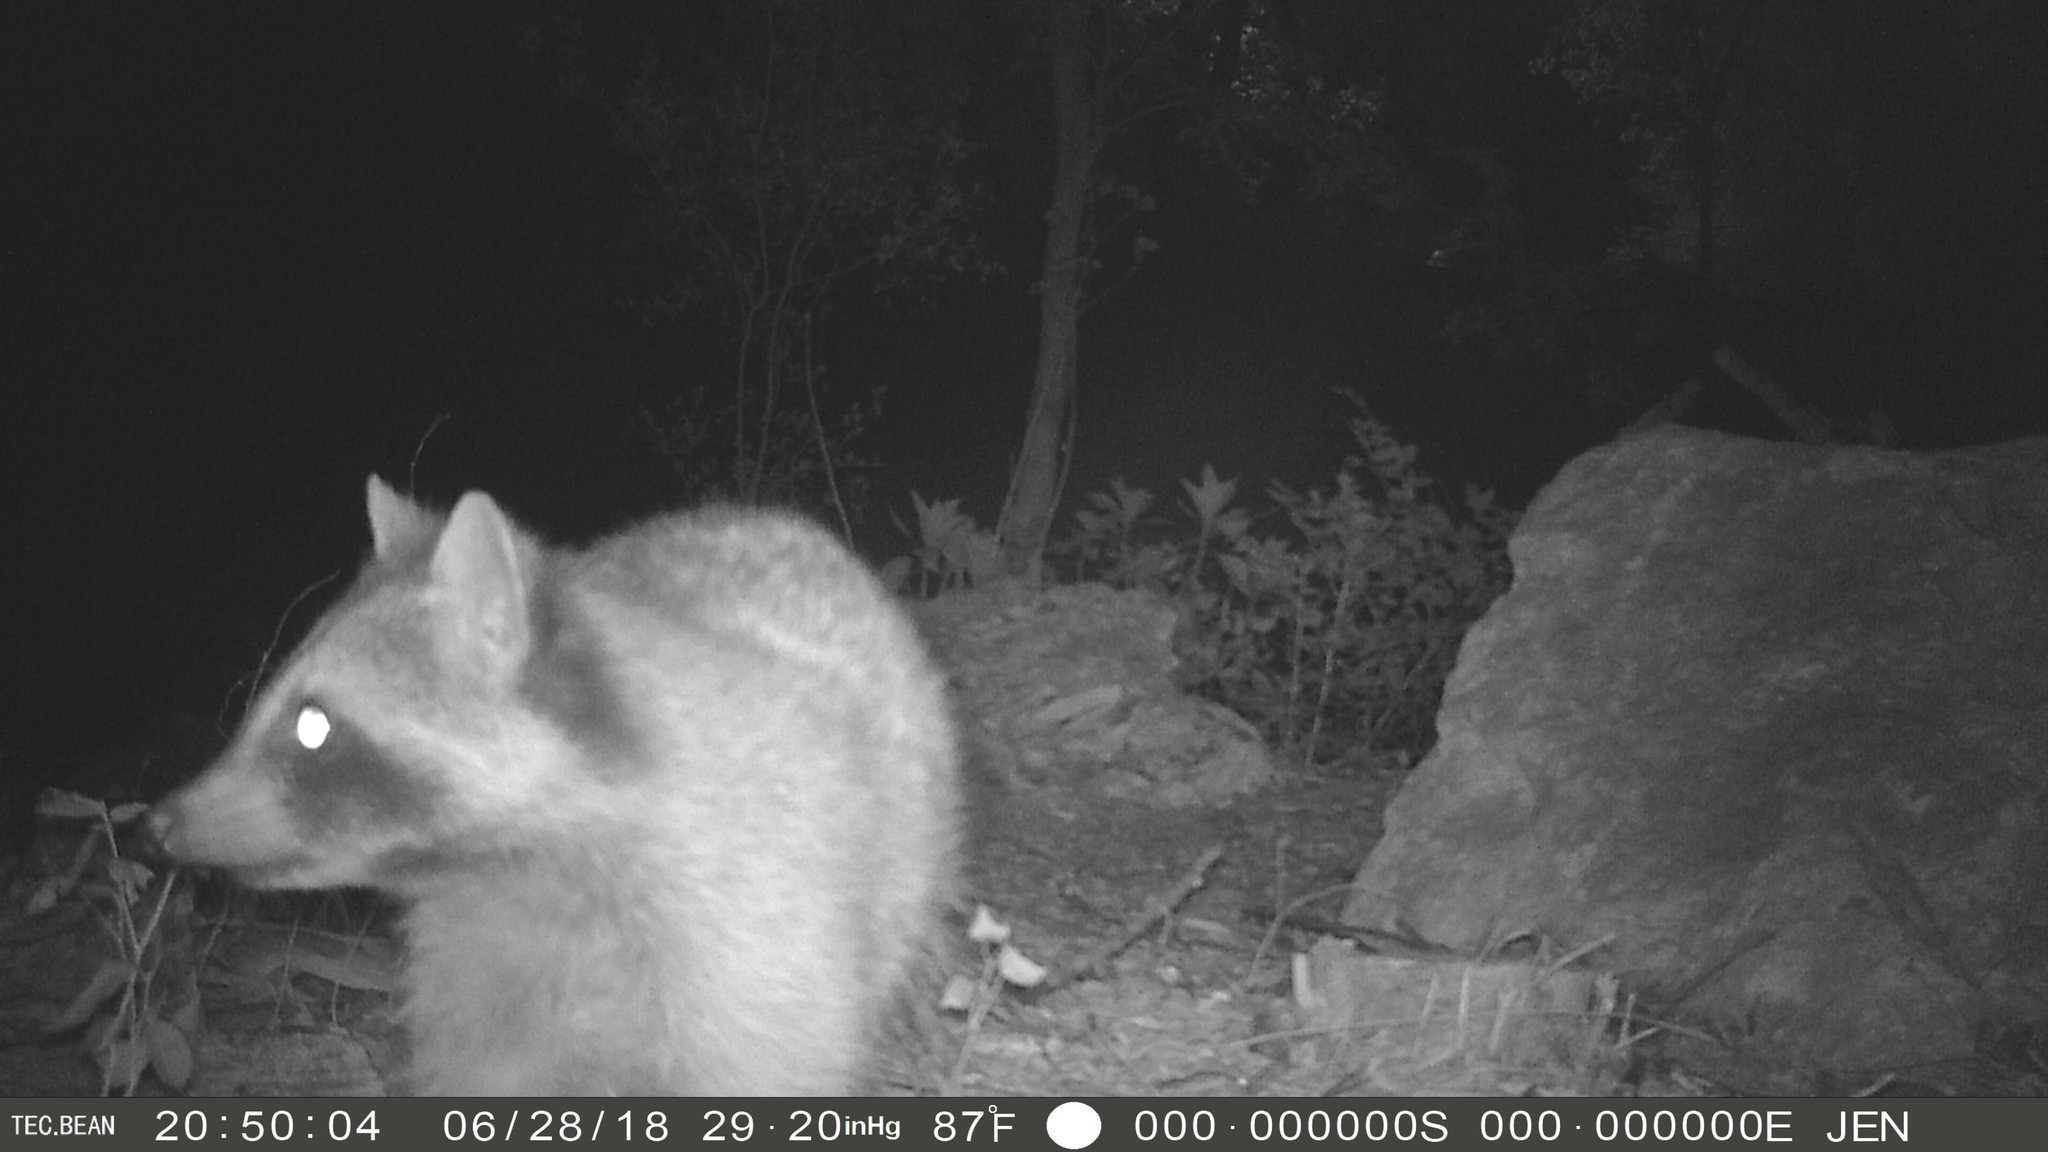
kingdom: Animalia
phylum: Chordata
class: Mammalia
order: Carnivora
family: Procyonidae
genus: Procyon
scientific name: Procyon lotor
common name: Raccoon
